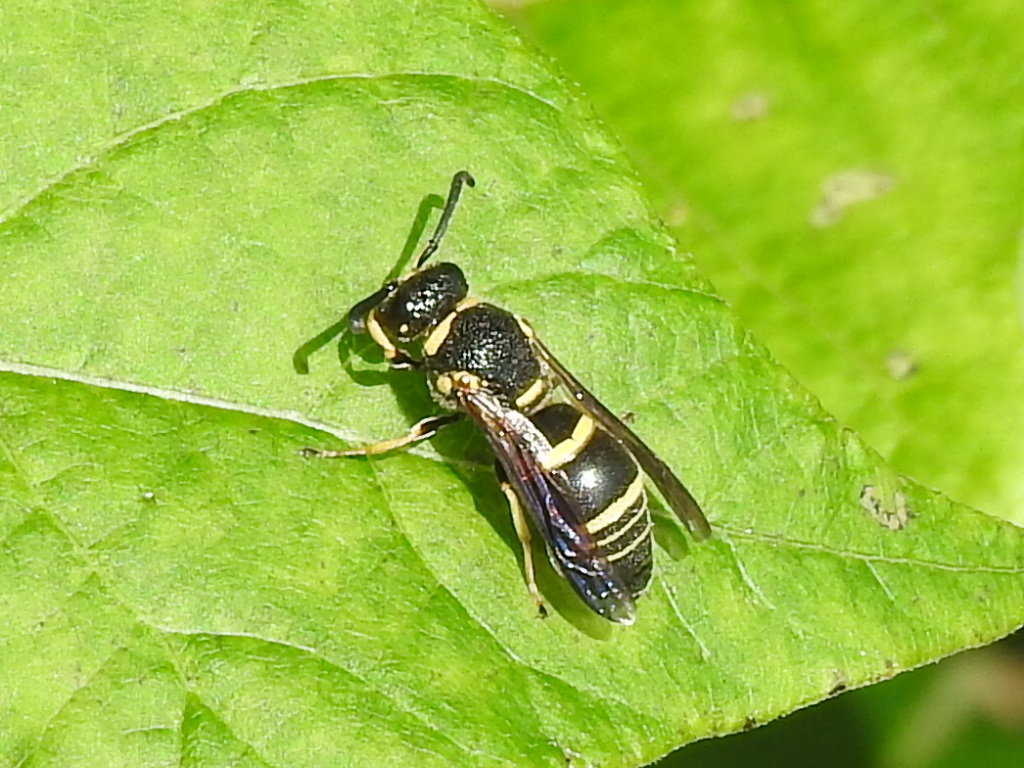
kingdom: Animalia
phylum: Arthropoda
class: Insecta
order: Hymenoptera
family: Eumenidae
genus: Euodynerus
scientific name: Euodynerus foraminatus
